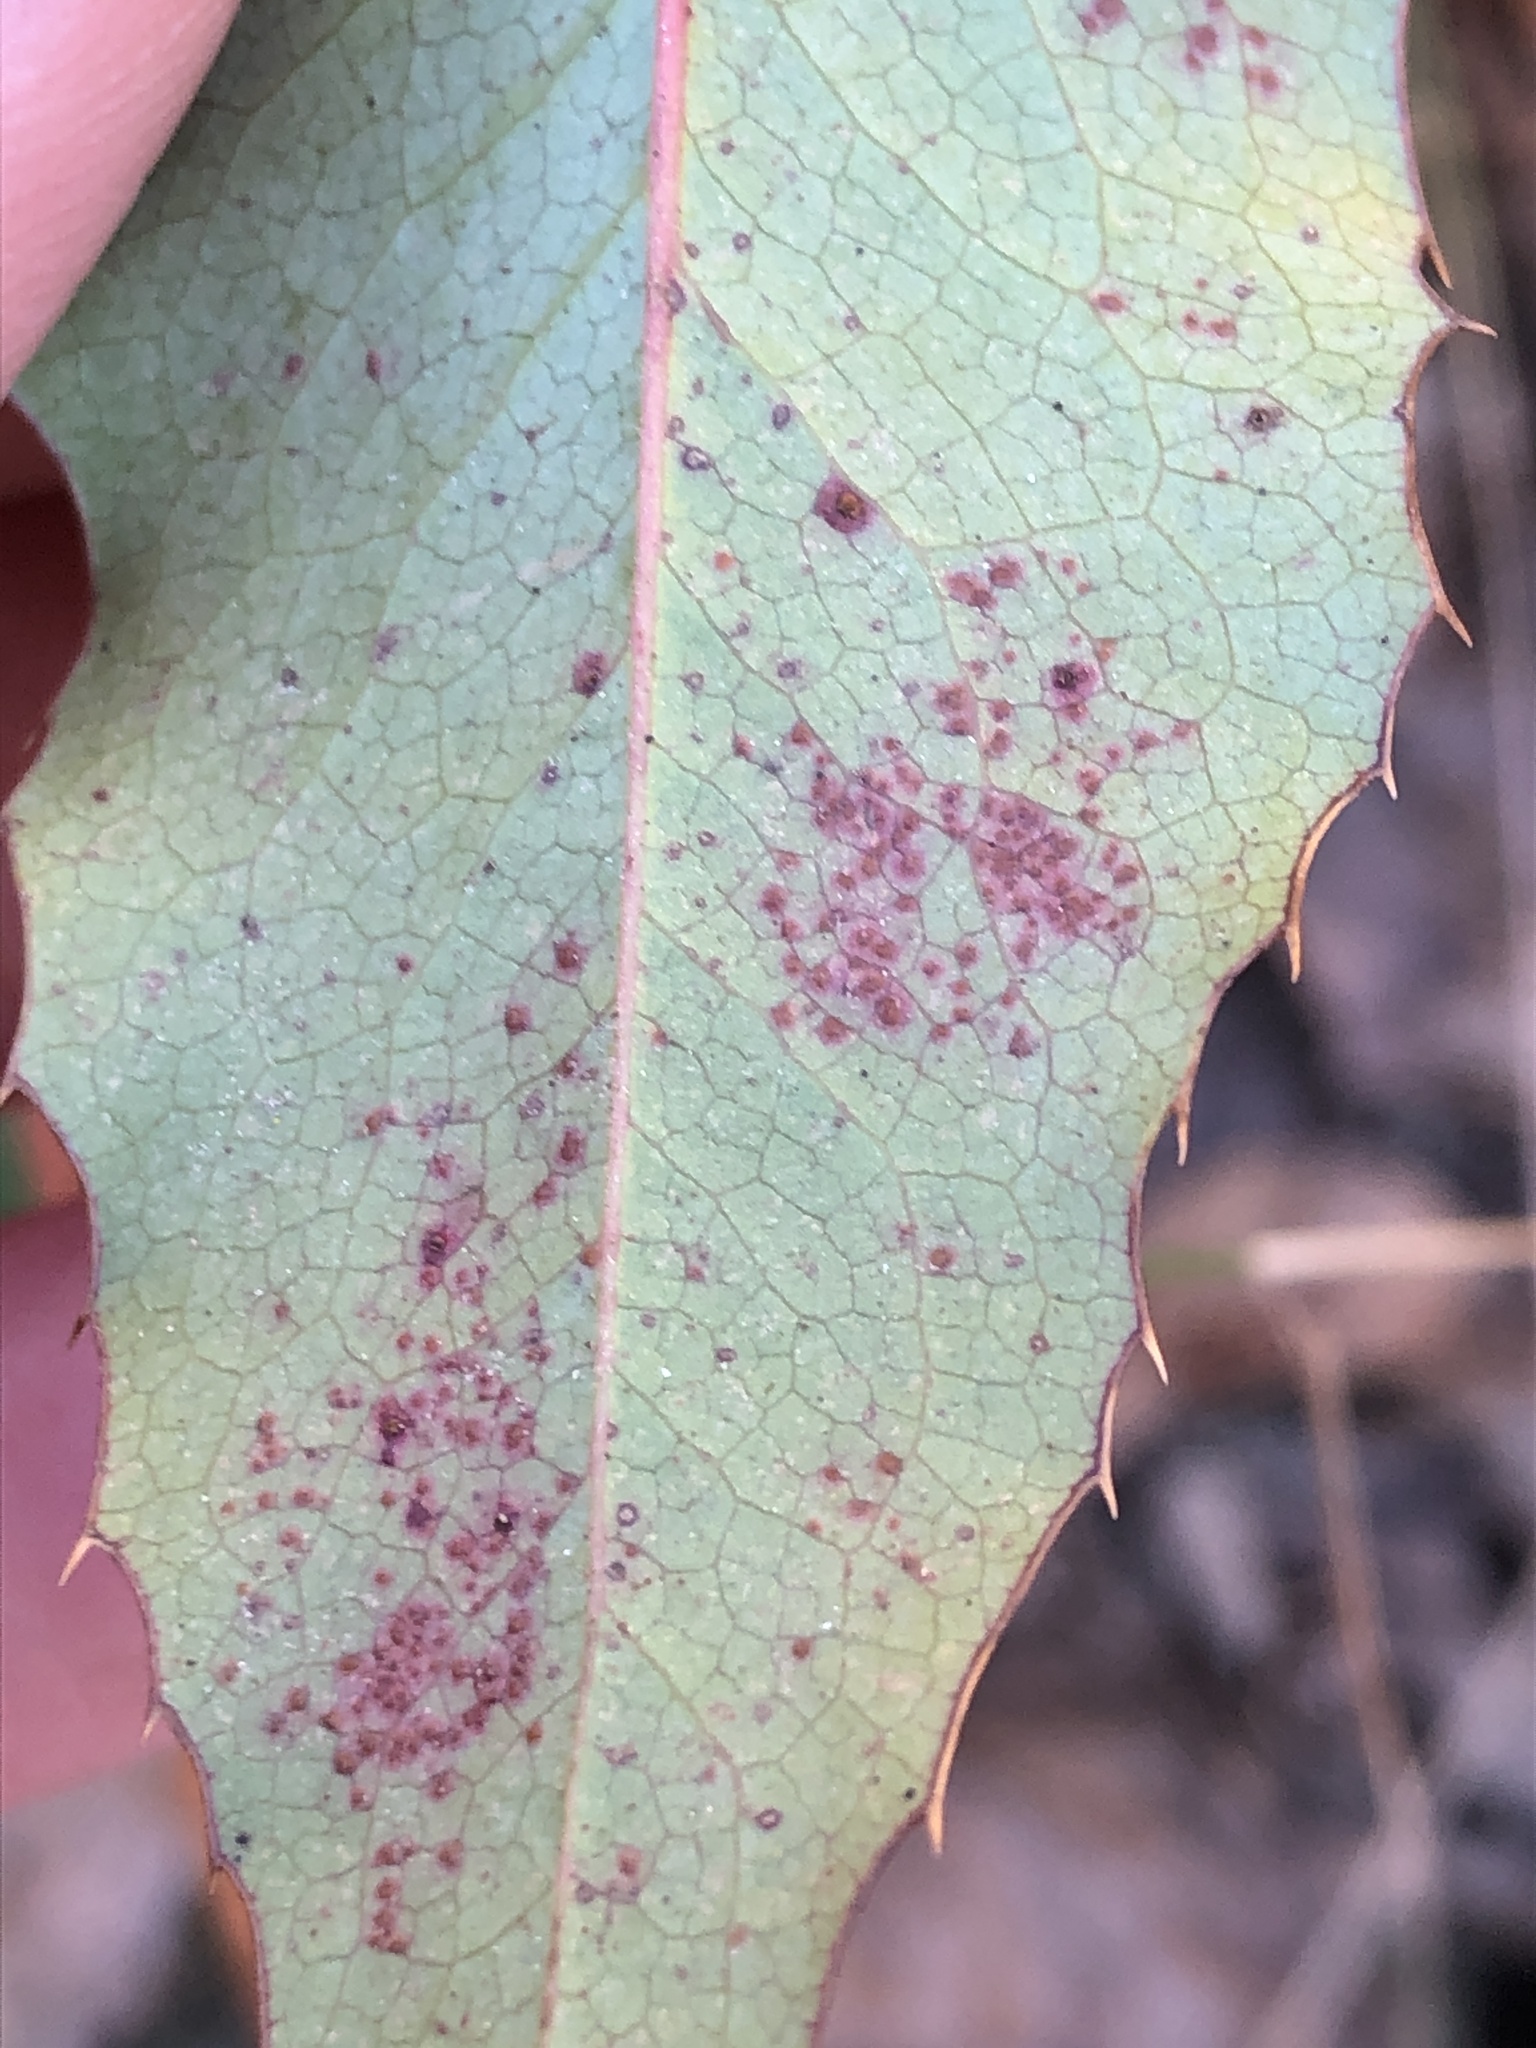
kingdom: Fungi
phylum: Basidiomycota
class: Pucciniomycetes
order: Pucciniales
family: Pucciniaceae
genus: Cumminsiella
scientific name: Cumminsiella mirabilissima
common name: Mahonia rust
